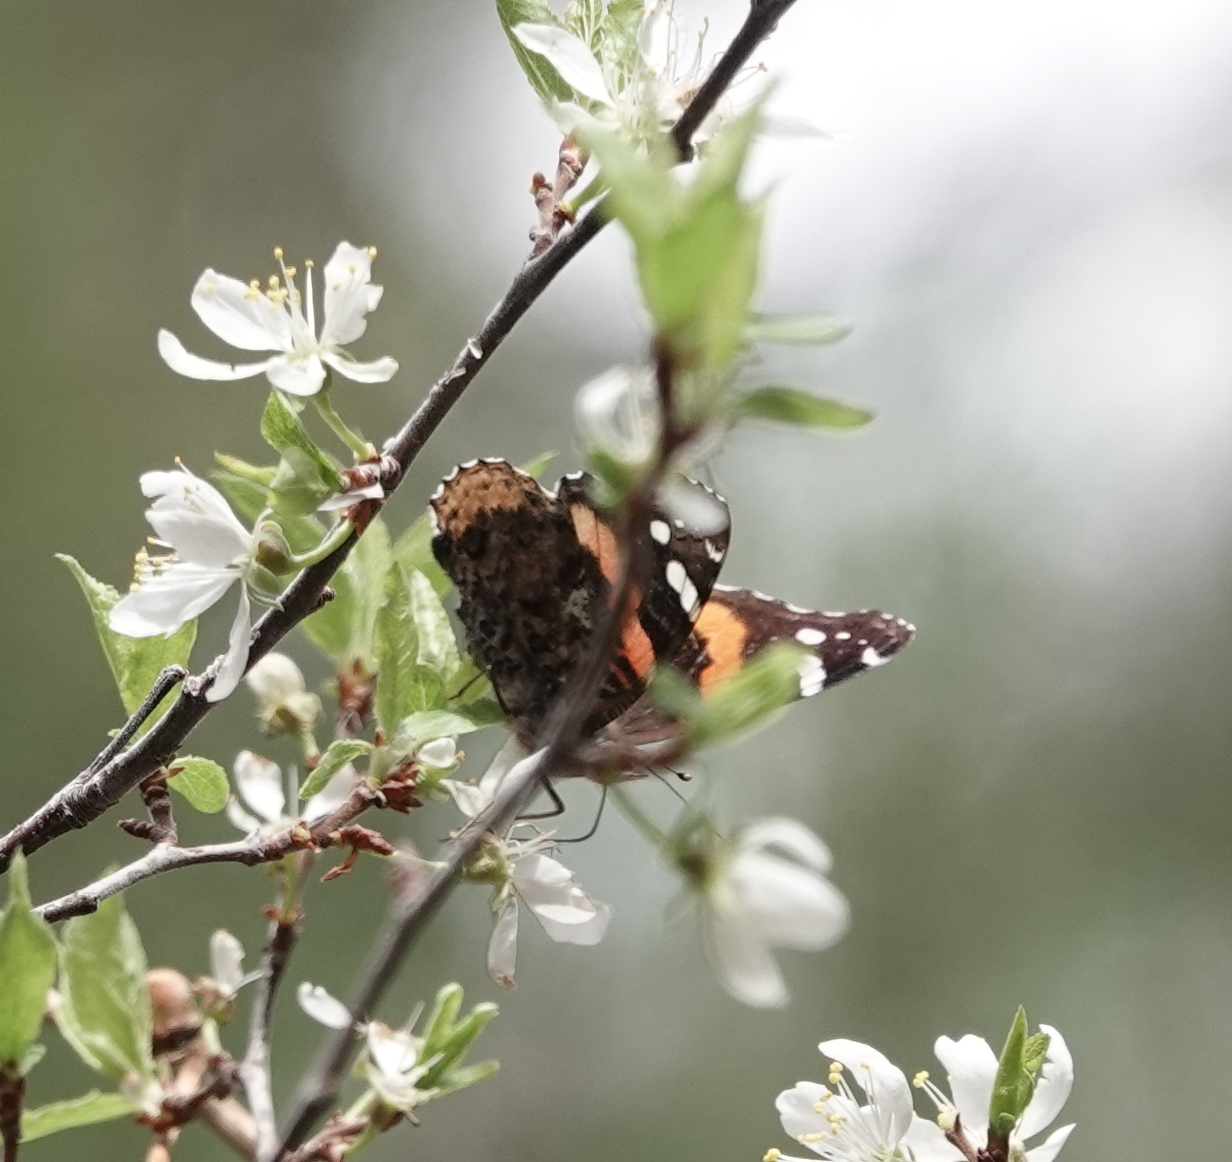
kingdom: Animalia
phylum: Arthropoda
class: Insecta
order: Lepidoptera
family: Nymphalidae
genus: Vanessa
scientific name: Vanessa atalanta
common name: Red admiral
